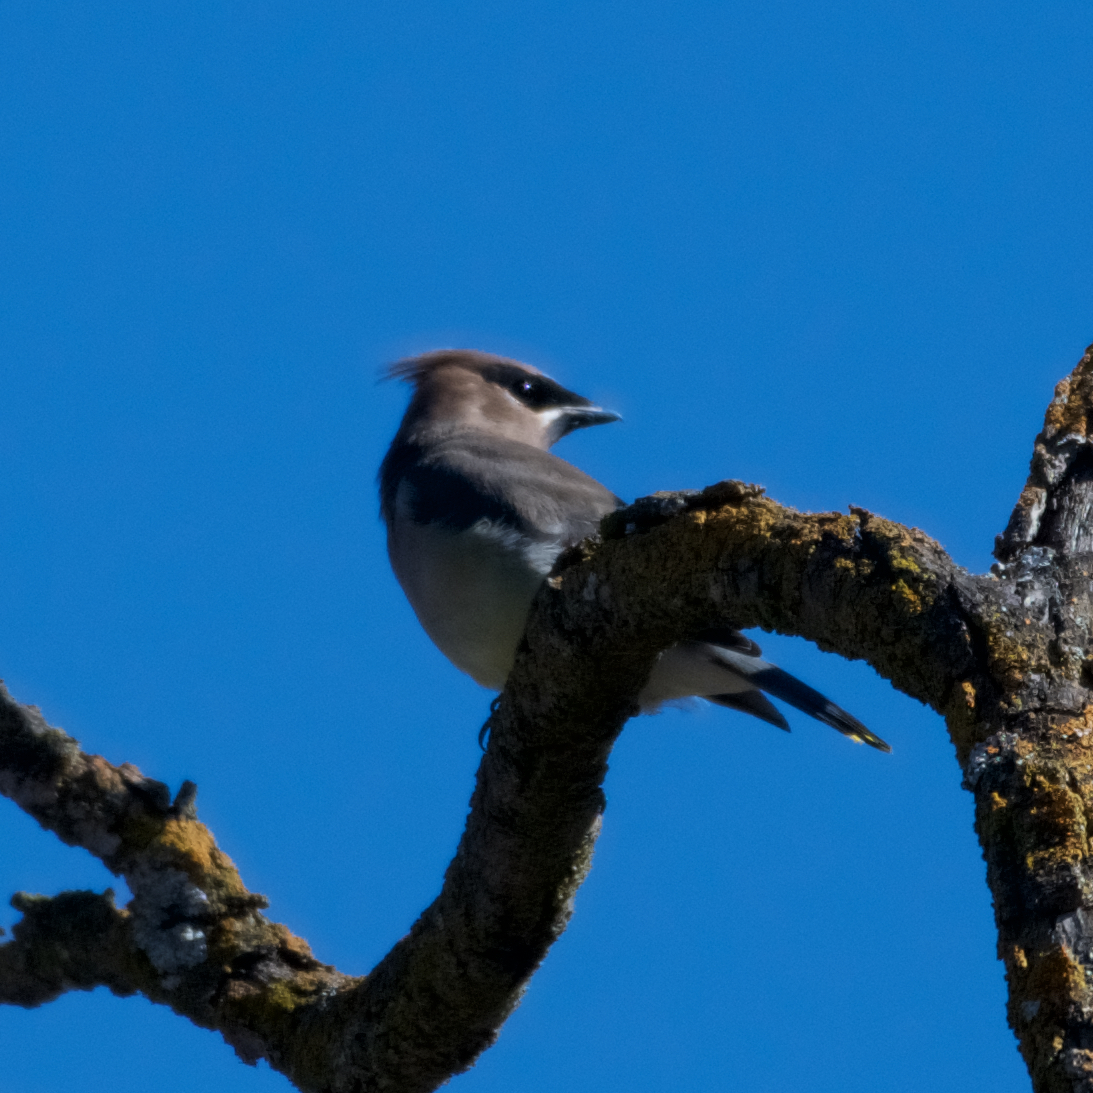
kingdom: Animalia
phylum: Chordata
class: Aves
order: Passeriformes
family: Bombycillidae
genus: Bombycilla
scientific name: Bombycilla cedrorum
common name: Cedar waxwing
